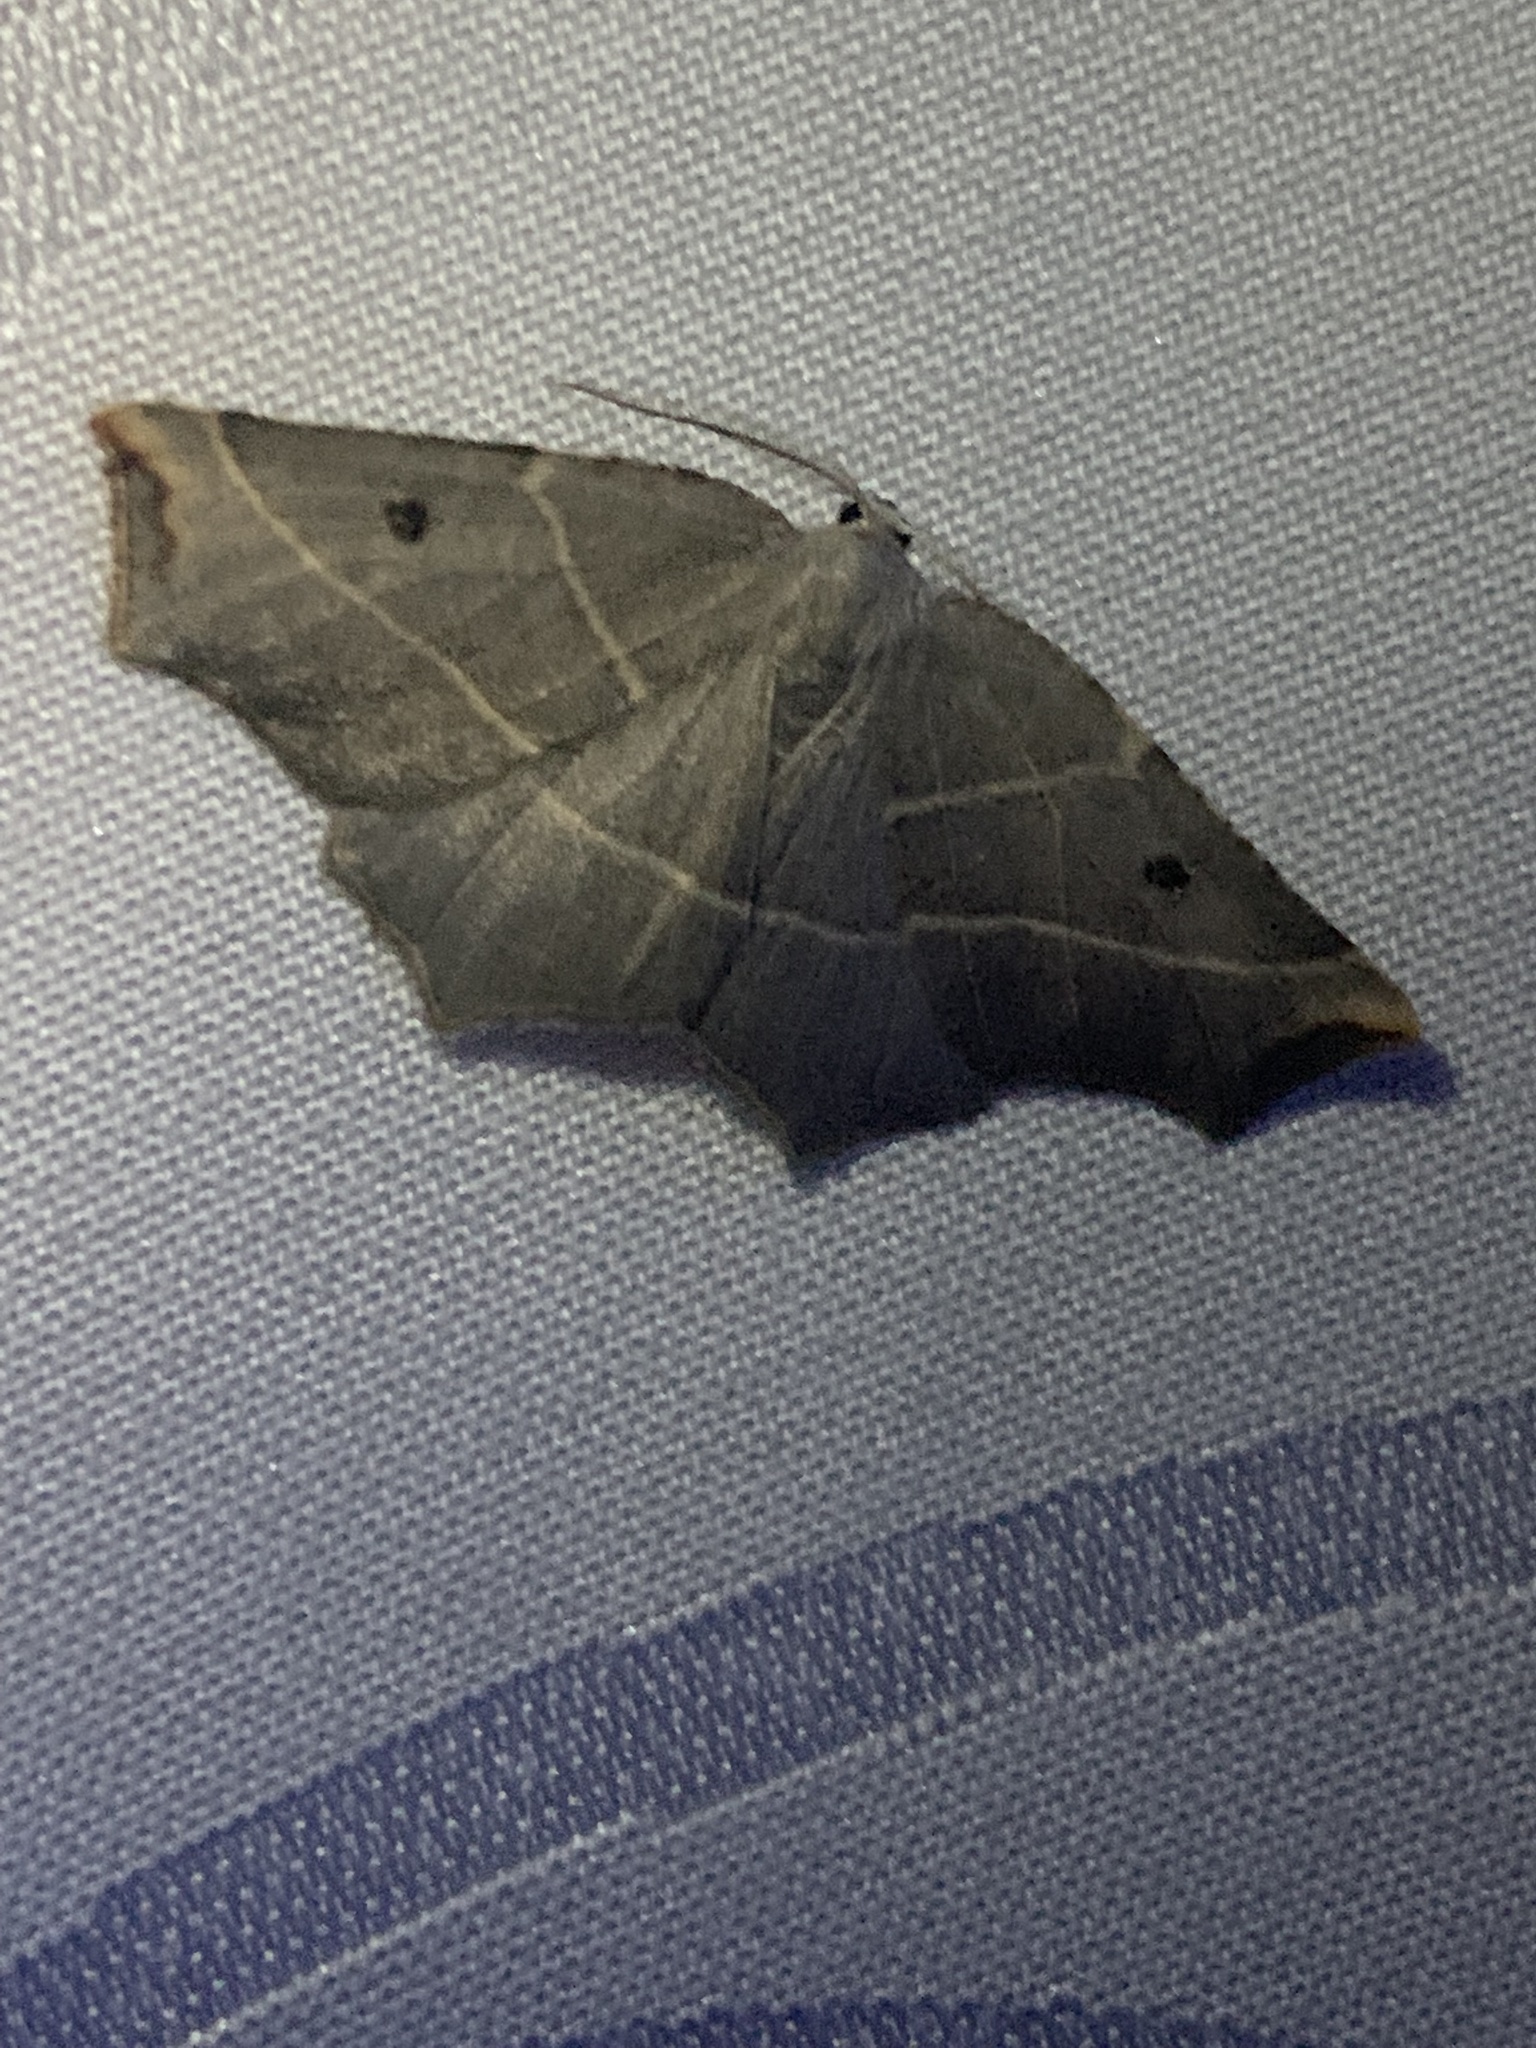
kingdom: Animalia
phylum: Arthropoda
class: Insecta
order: Lepidoptera
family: Geometridae
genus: Metanema
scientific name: Metanema inatomaria
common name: Pale metanema
